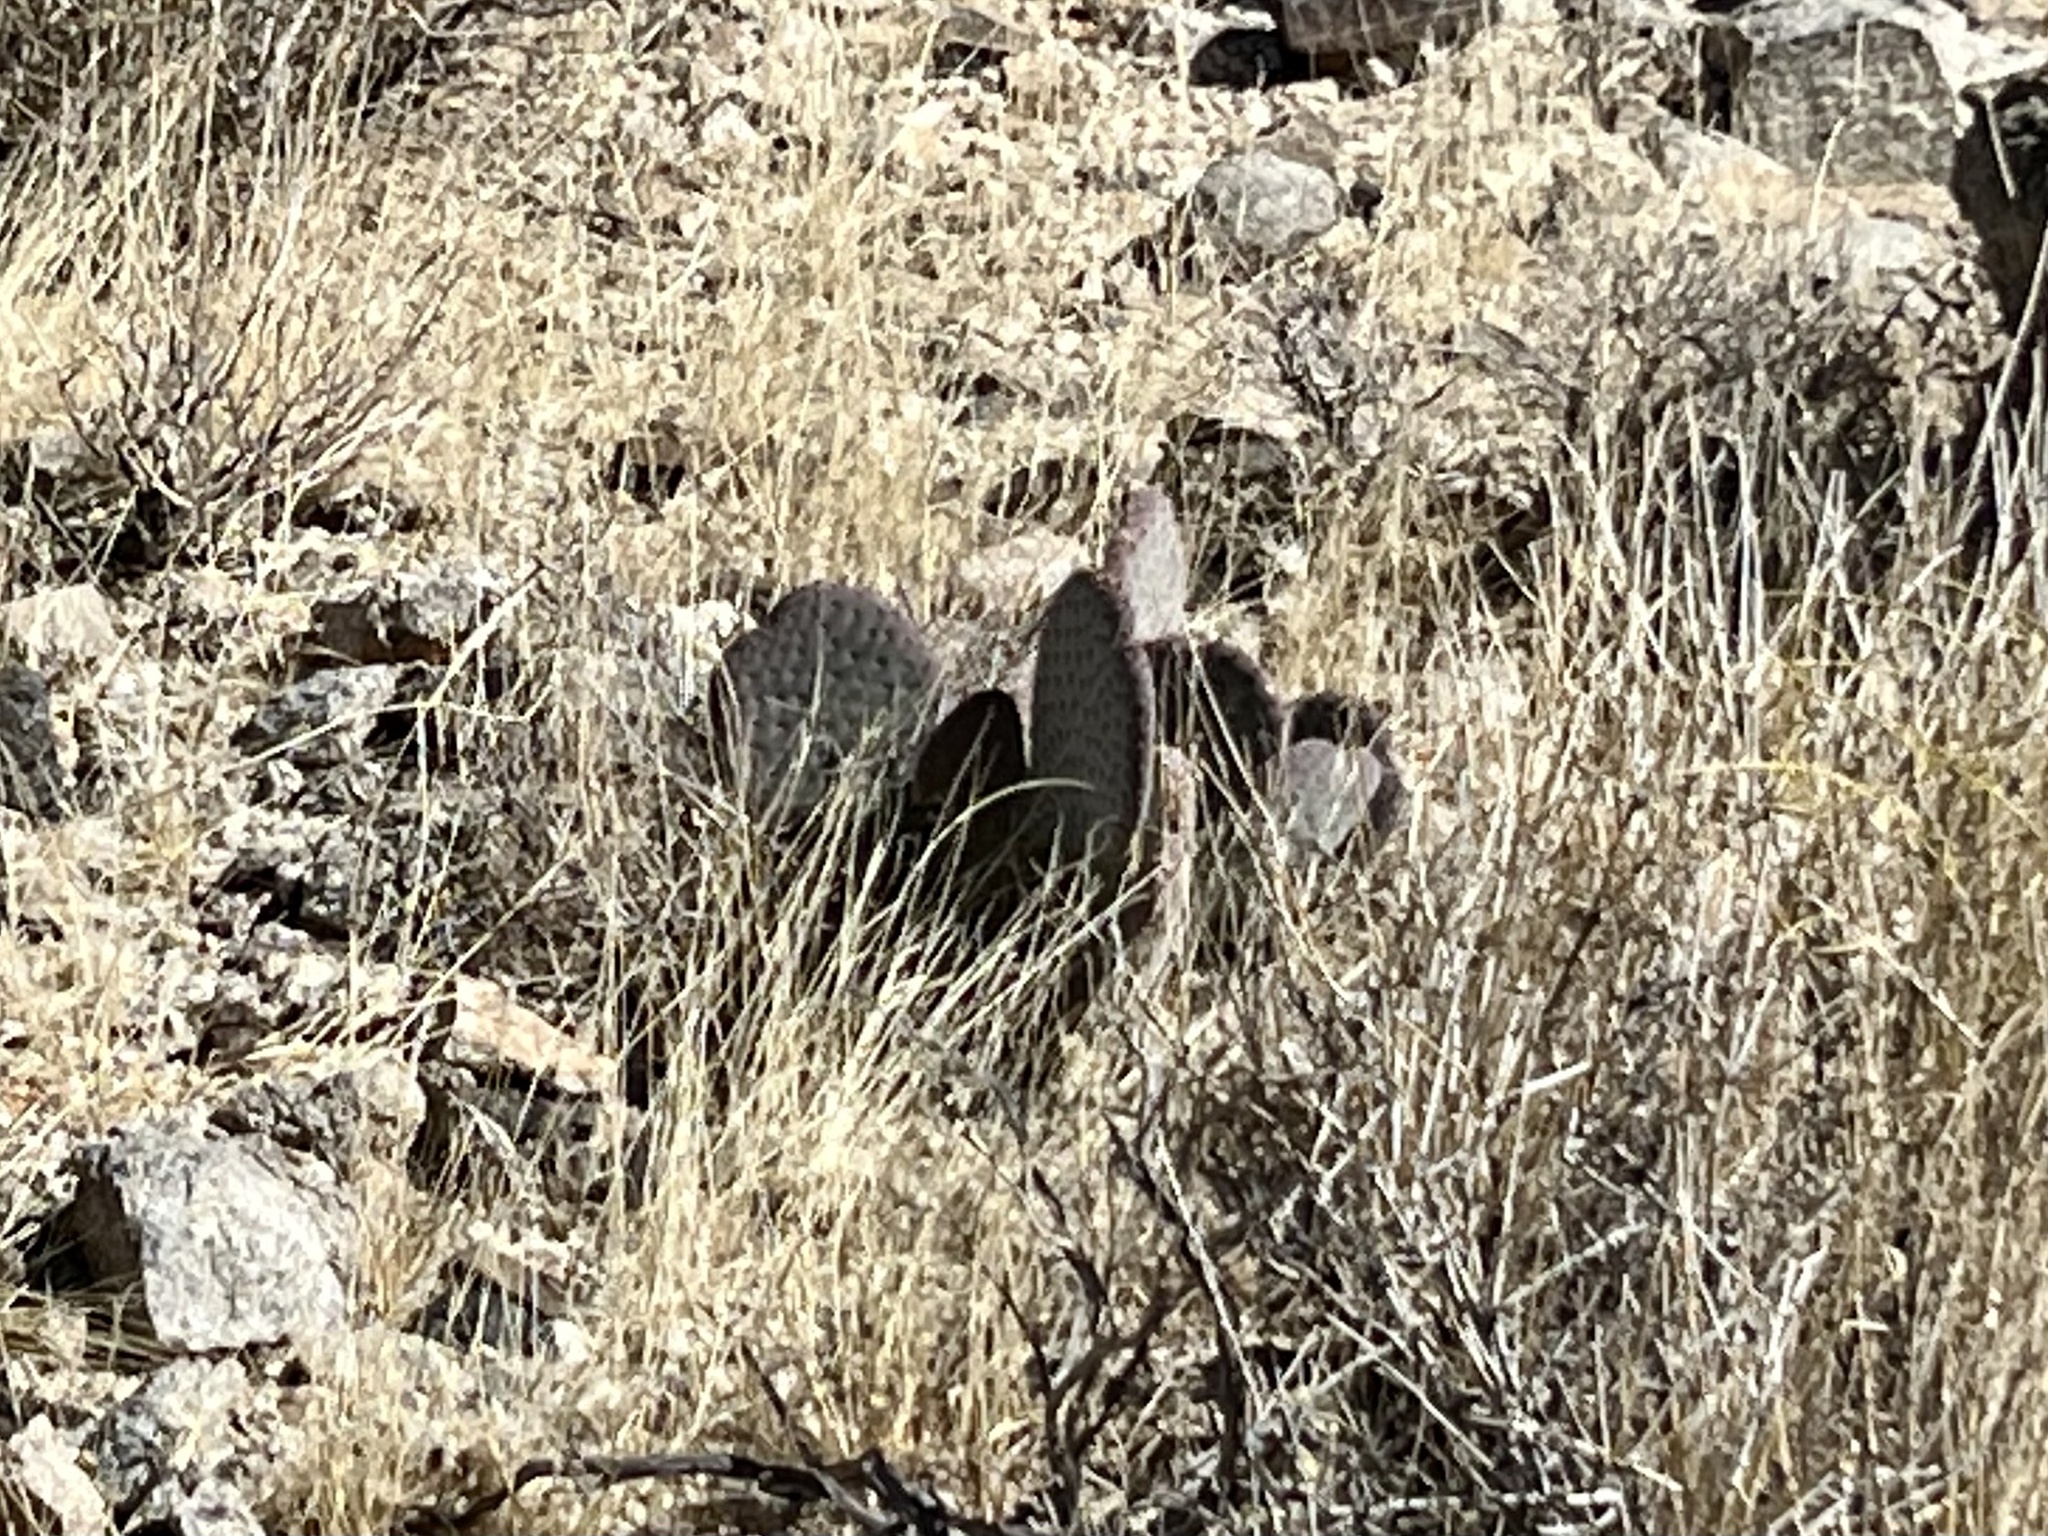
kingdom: Plantae
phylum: Tracheophyta
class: Magnoliopsida
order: Caryophyllales
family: Cactaceae
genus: Opuntia
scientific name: Opuntia basilaris
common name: Beavertail prickly-pear
